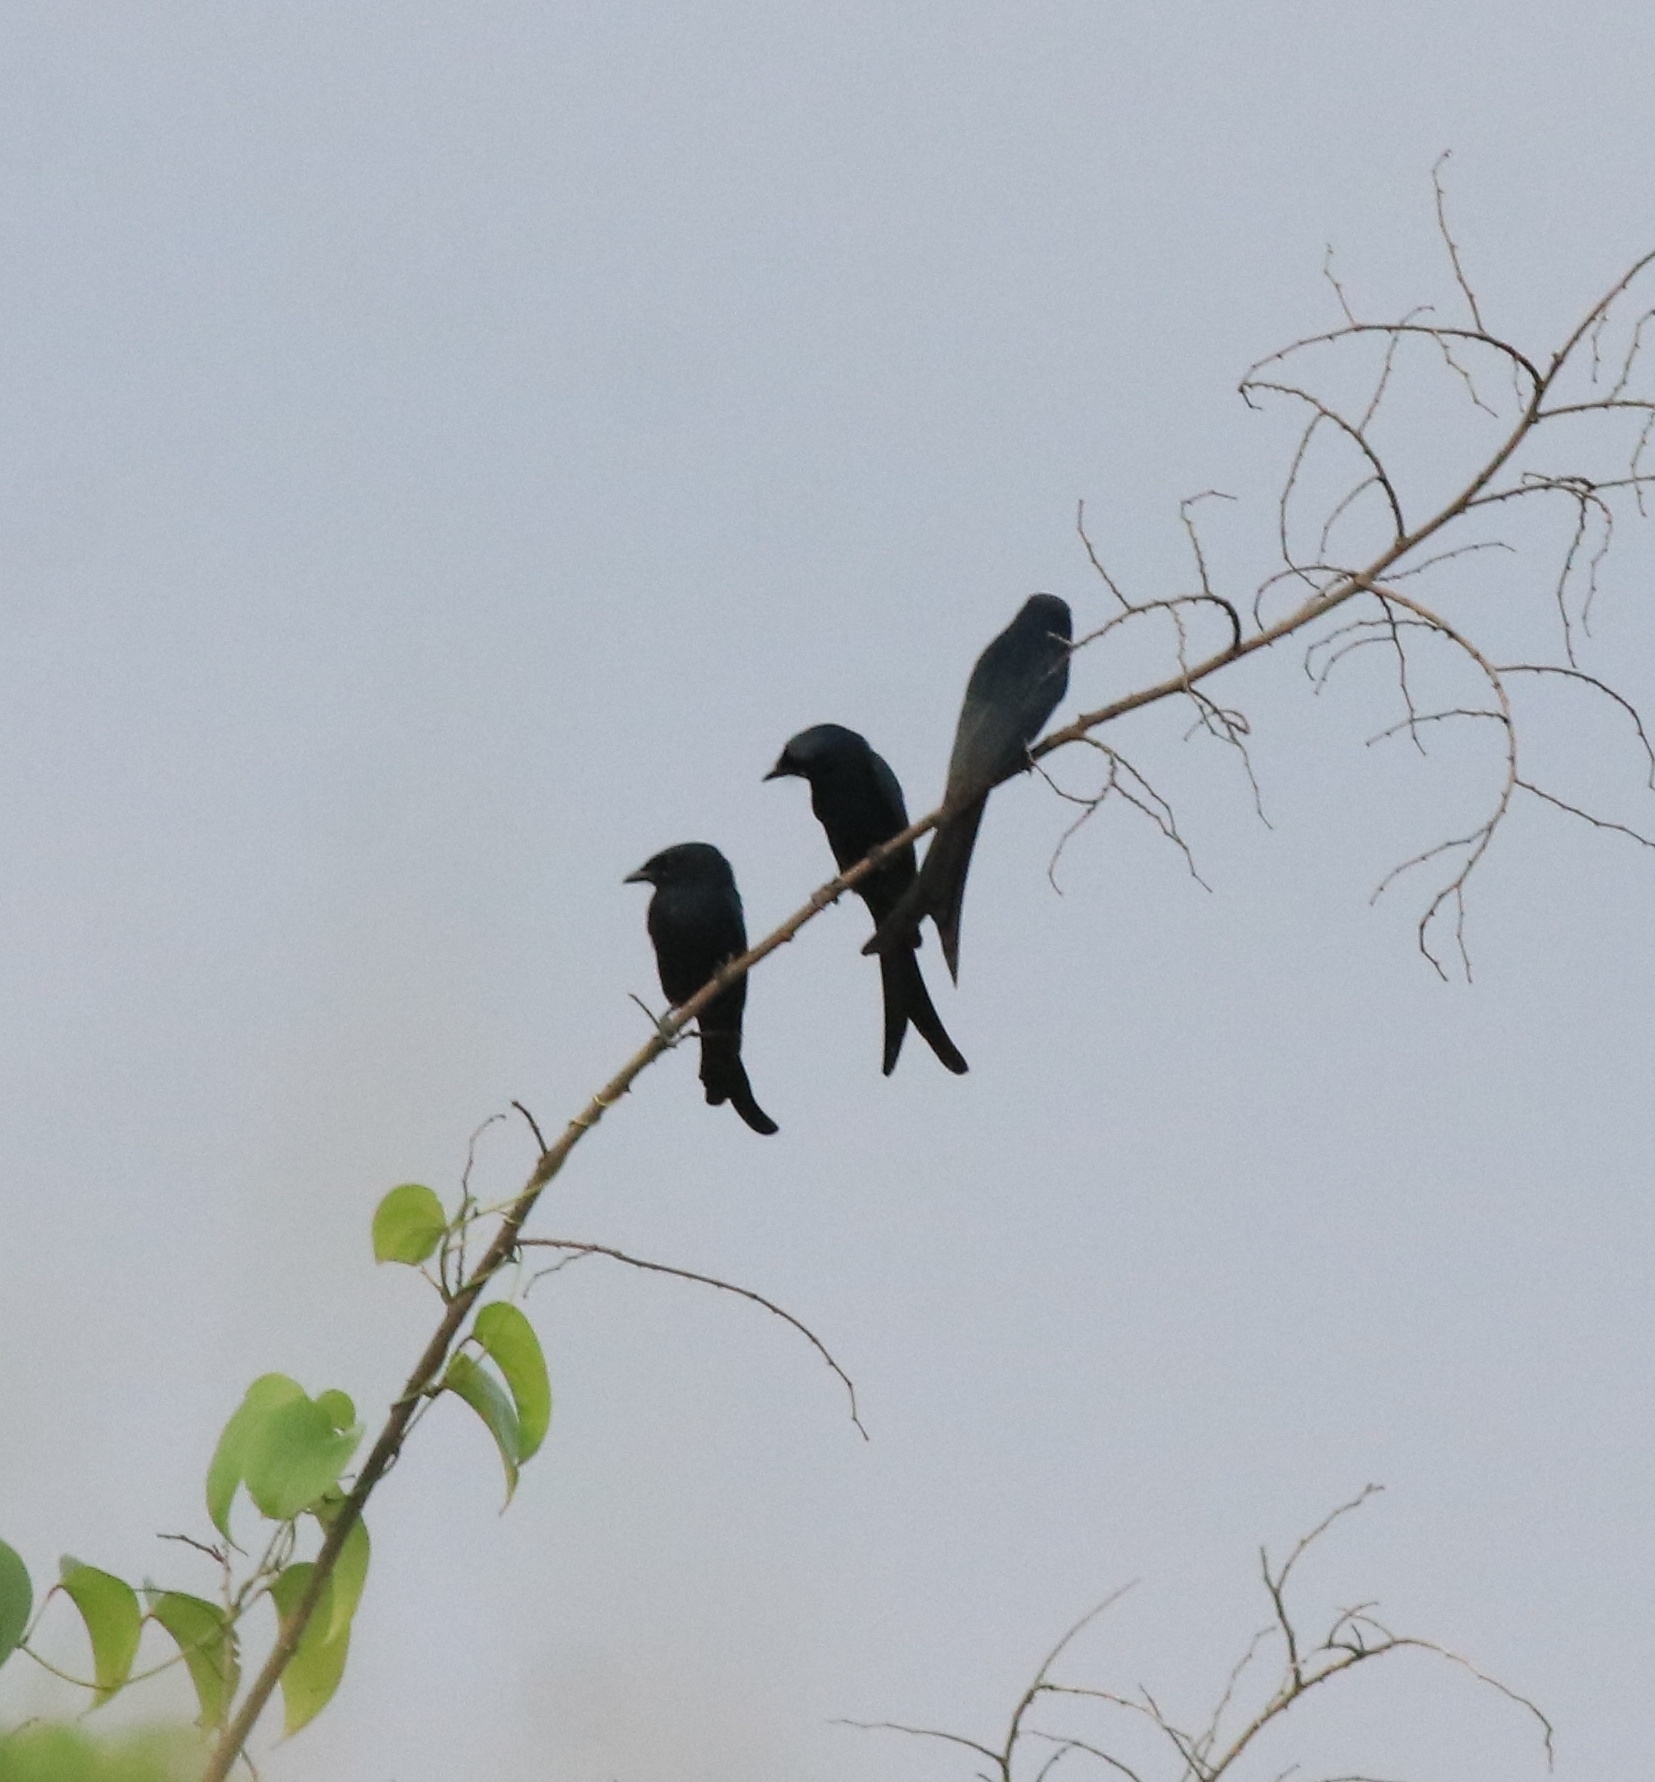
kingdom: Animalia
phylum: Chordata
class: Aves
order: Passeriformes
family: Dicruridae
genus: Dicrurus
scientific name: Dicrurus macrocercus
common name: Black drongo
